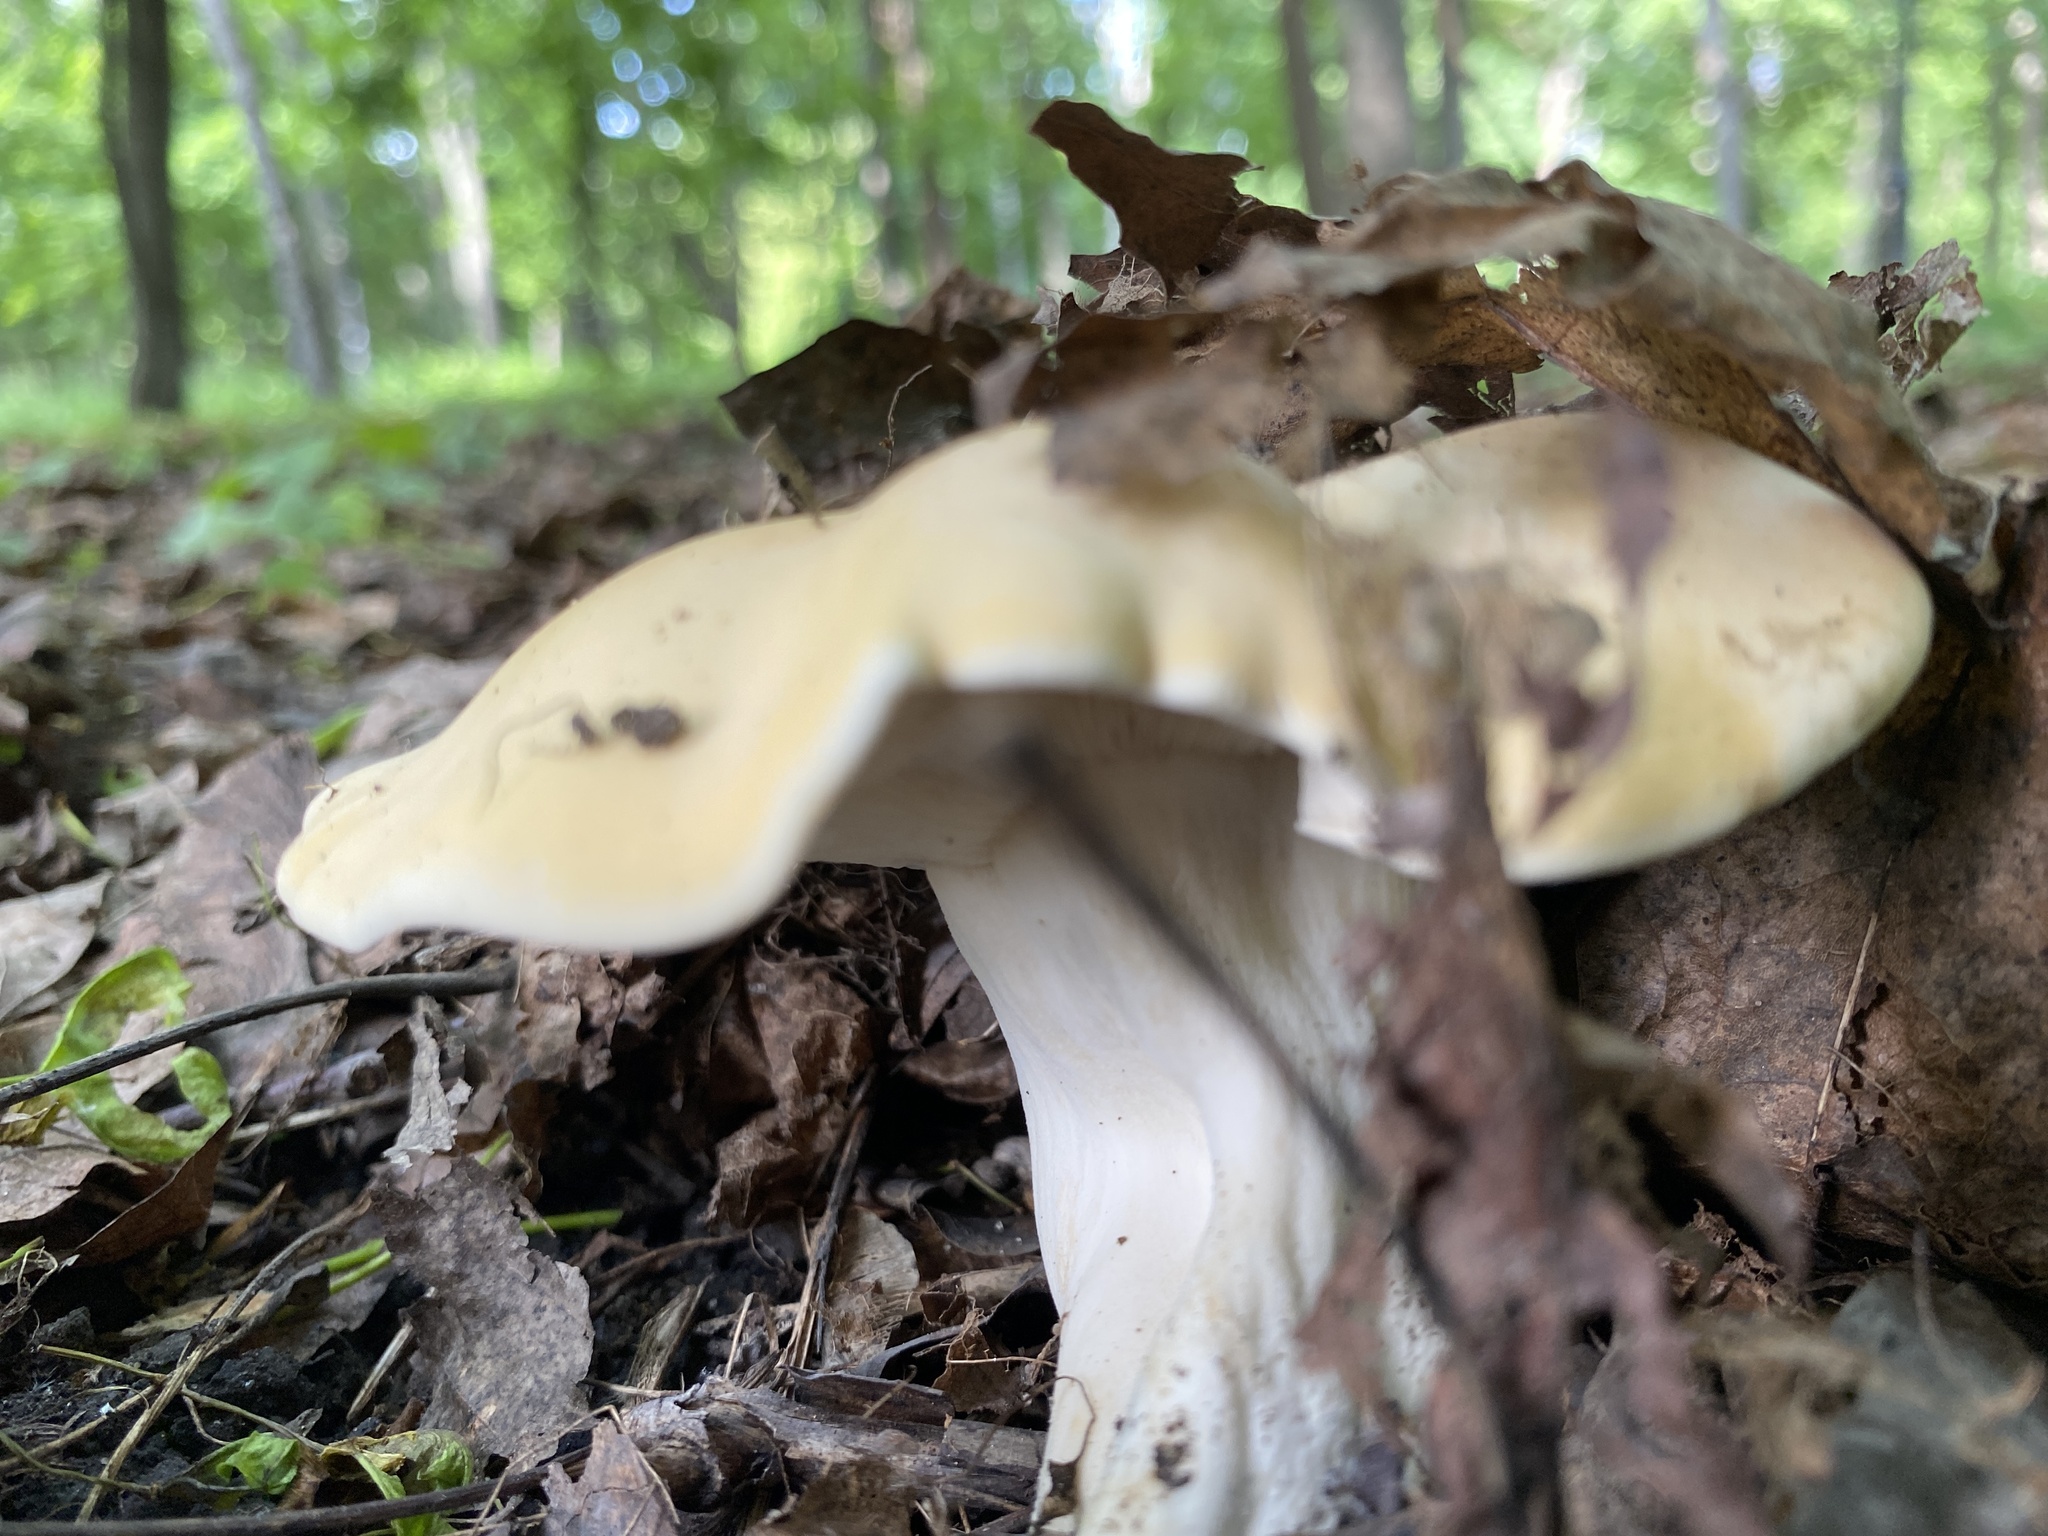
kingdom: Fungi
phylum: Basidiomycota
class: Agaricomycetes
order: Agaricales
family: Lyophyllaceae
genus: Calocybe
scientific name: Calocybe gambosa
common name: St. george's mushroom
